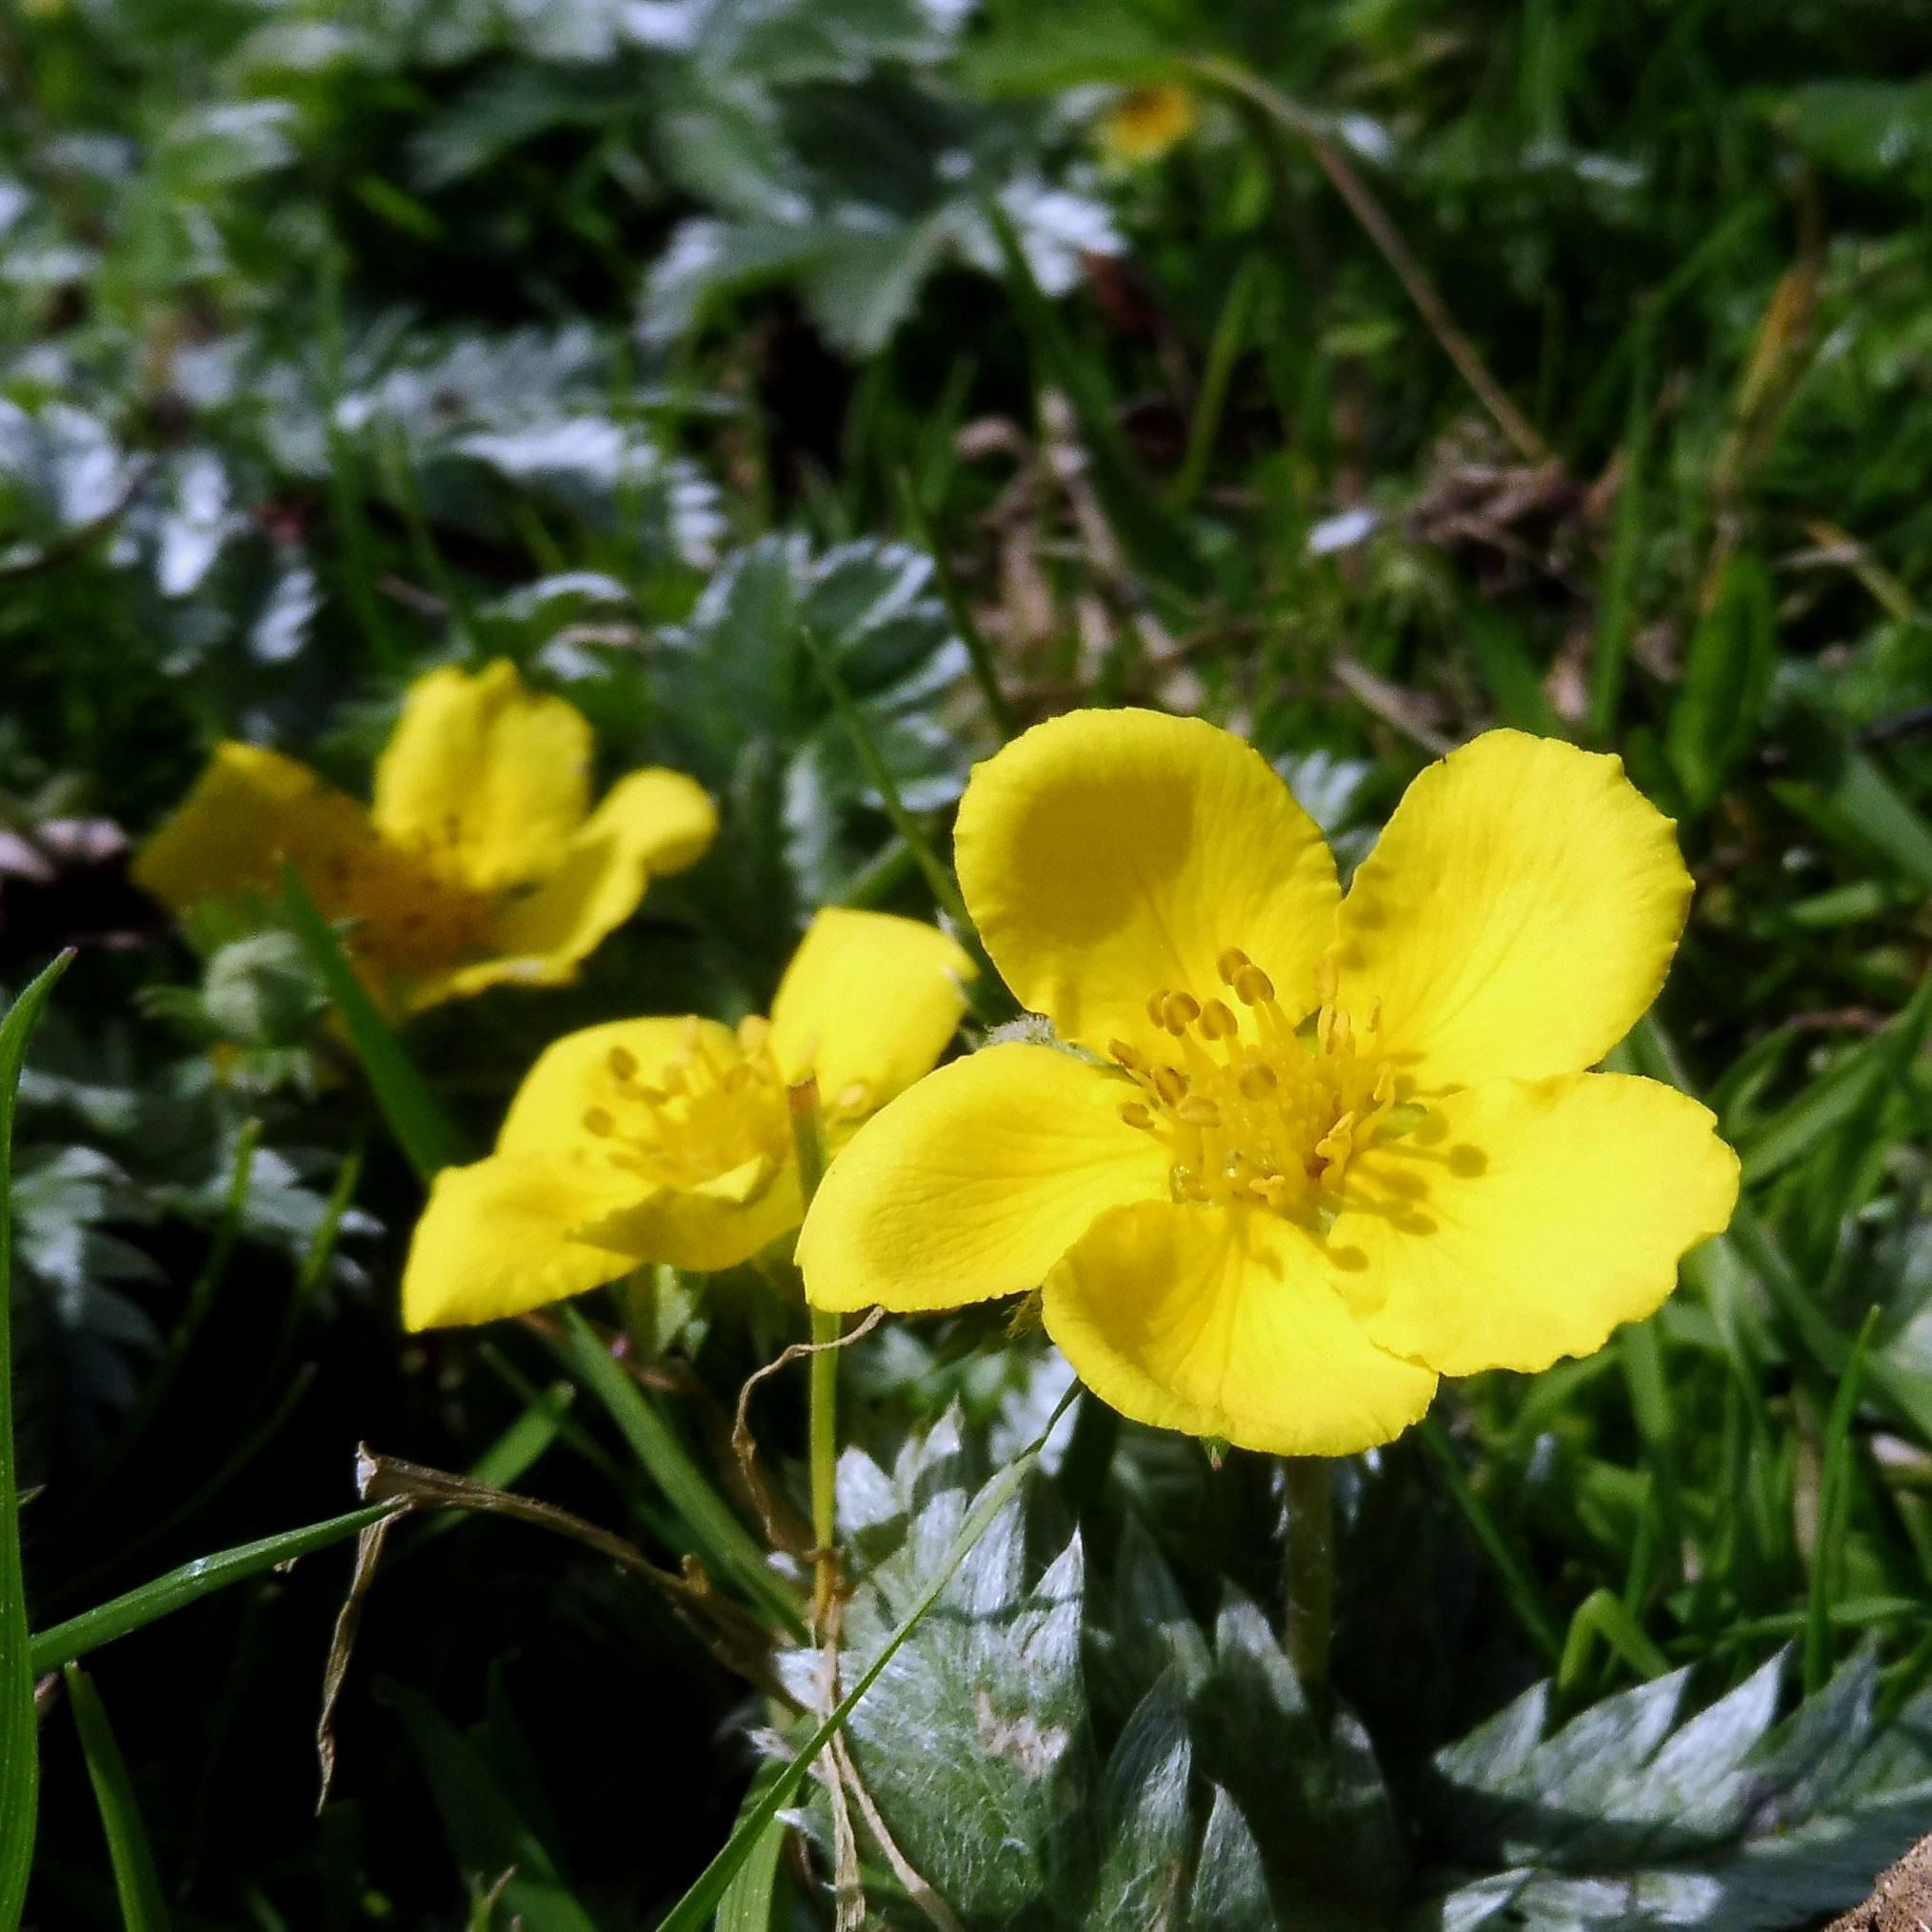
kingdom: Plantae
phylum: Tracheophyta
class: Magnoliopsida
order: Rosales
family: Rosaceae
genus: Argentina
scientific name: Argentina anserina
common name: Common silverweed
